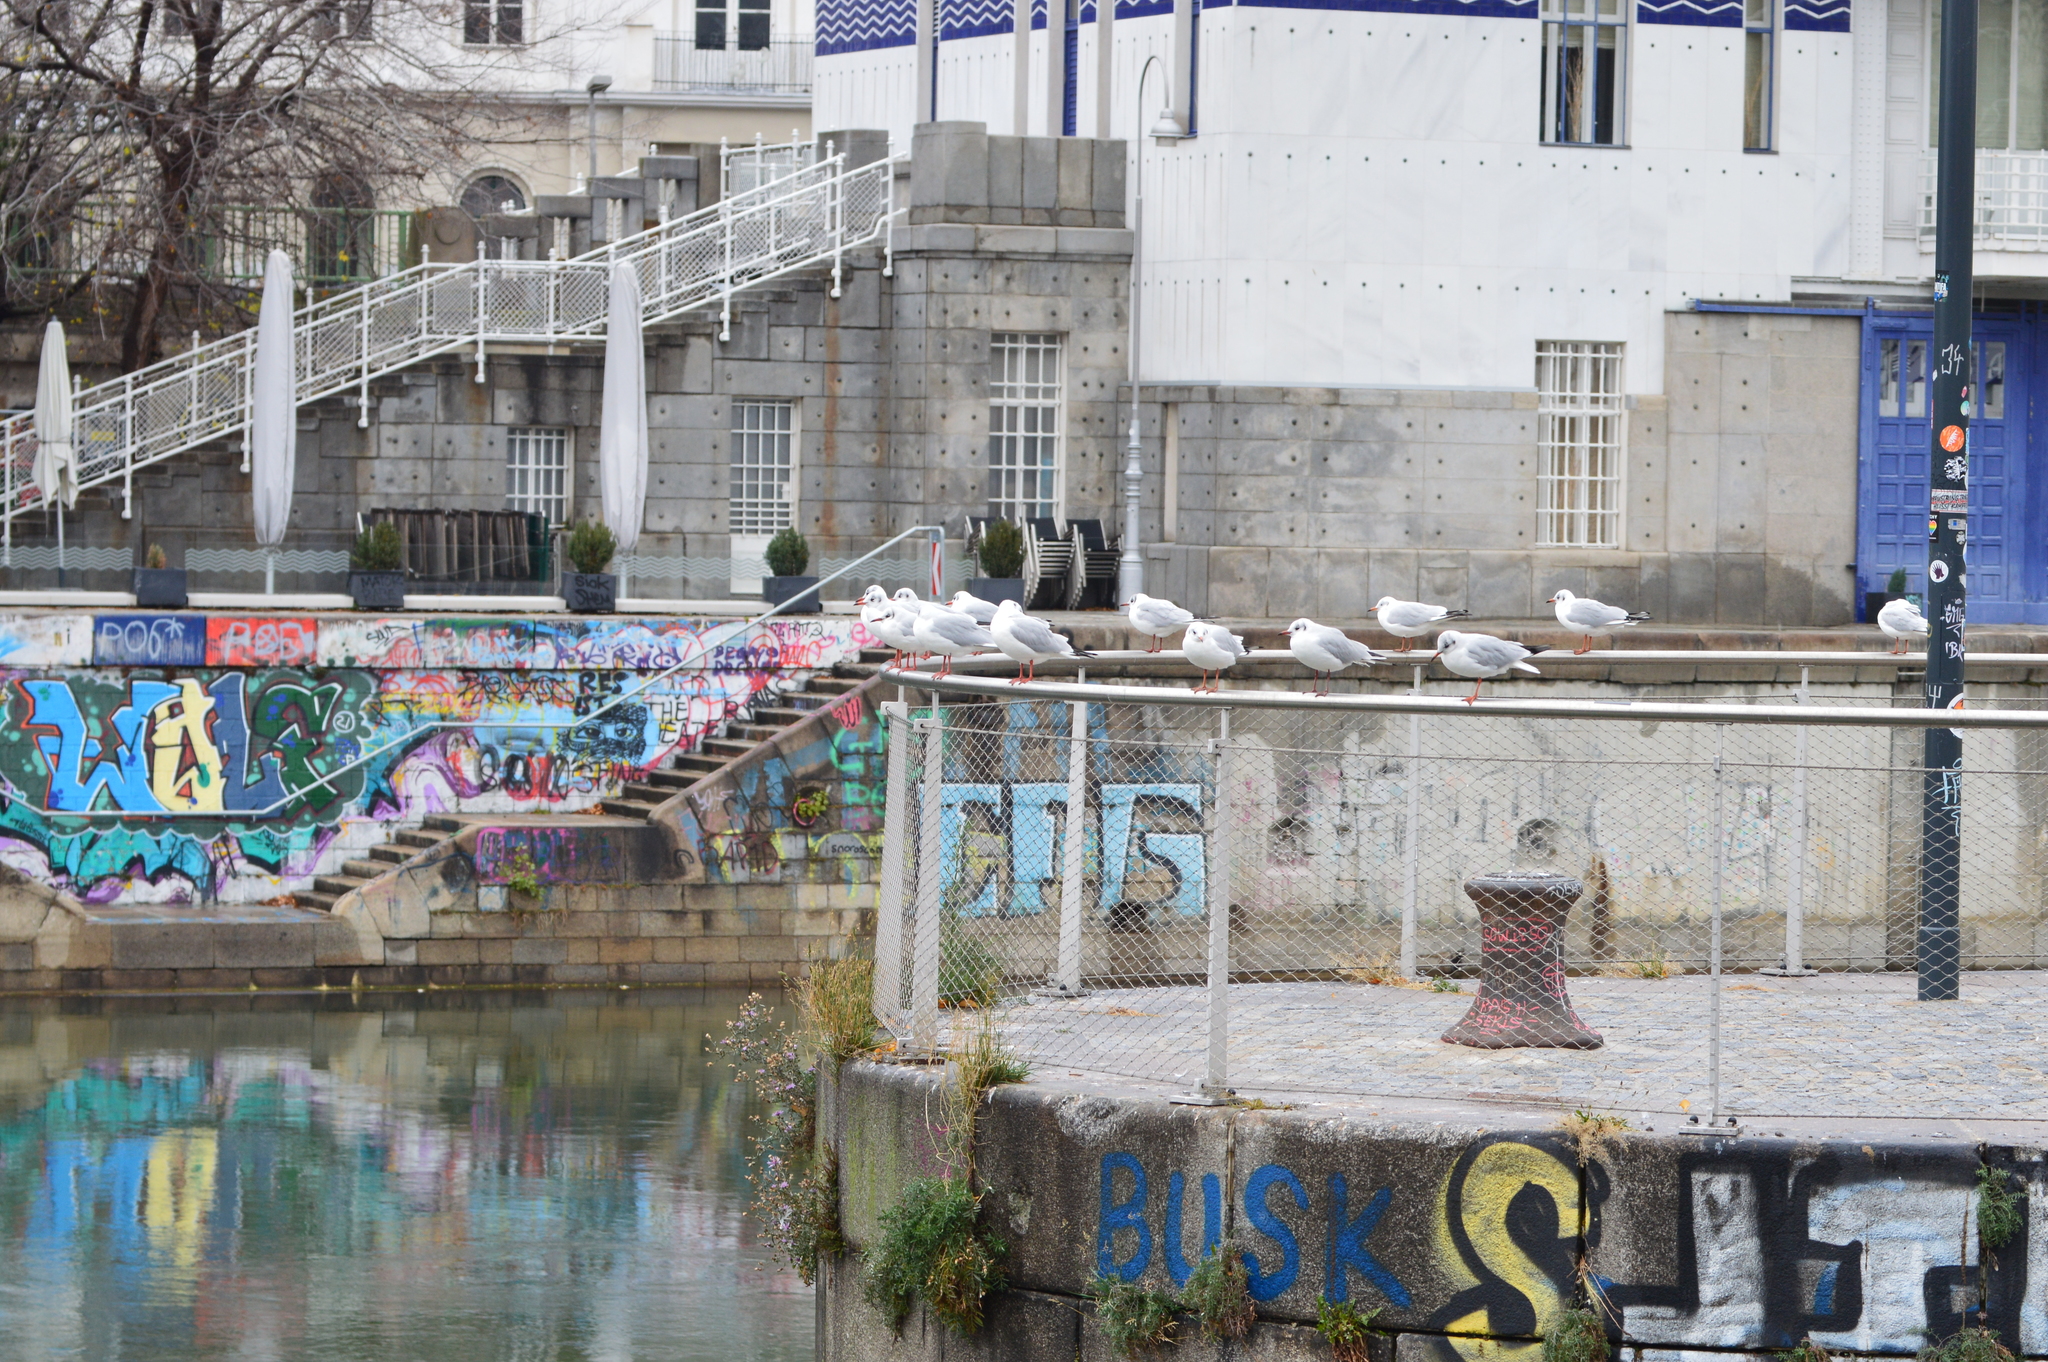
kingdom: Animalia
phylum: Chordata
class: Aves
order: Charadriiformes
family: Laridae
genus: Chroicocephalus
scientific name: Chroicocephalus ridibundus
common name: Black-headed gull
